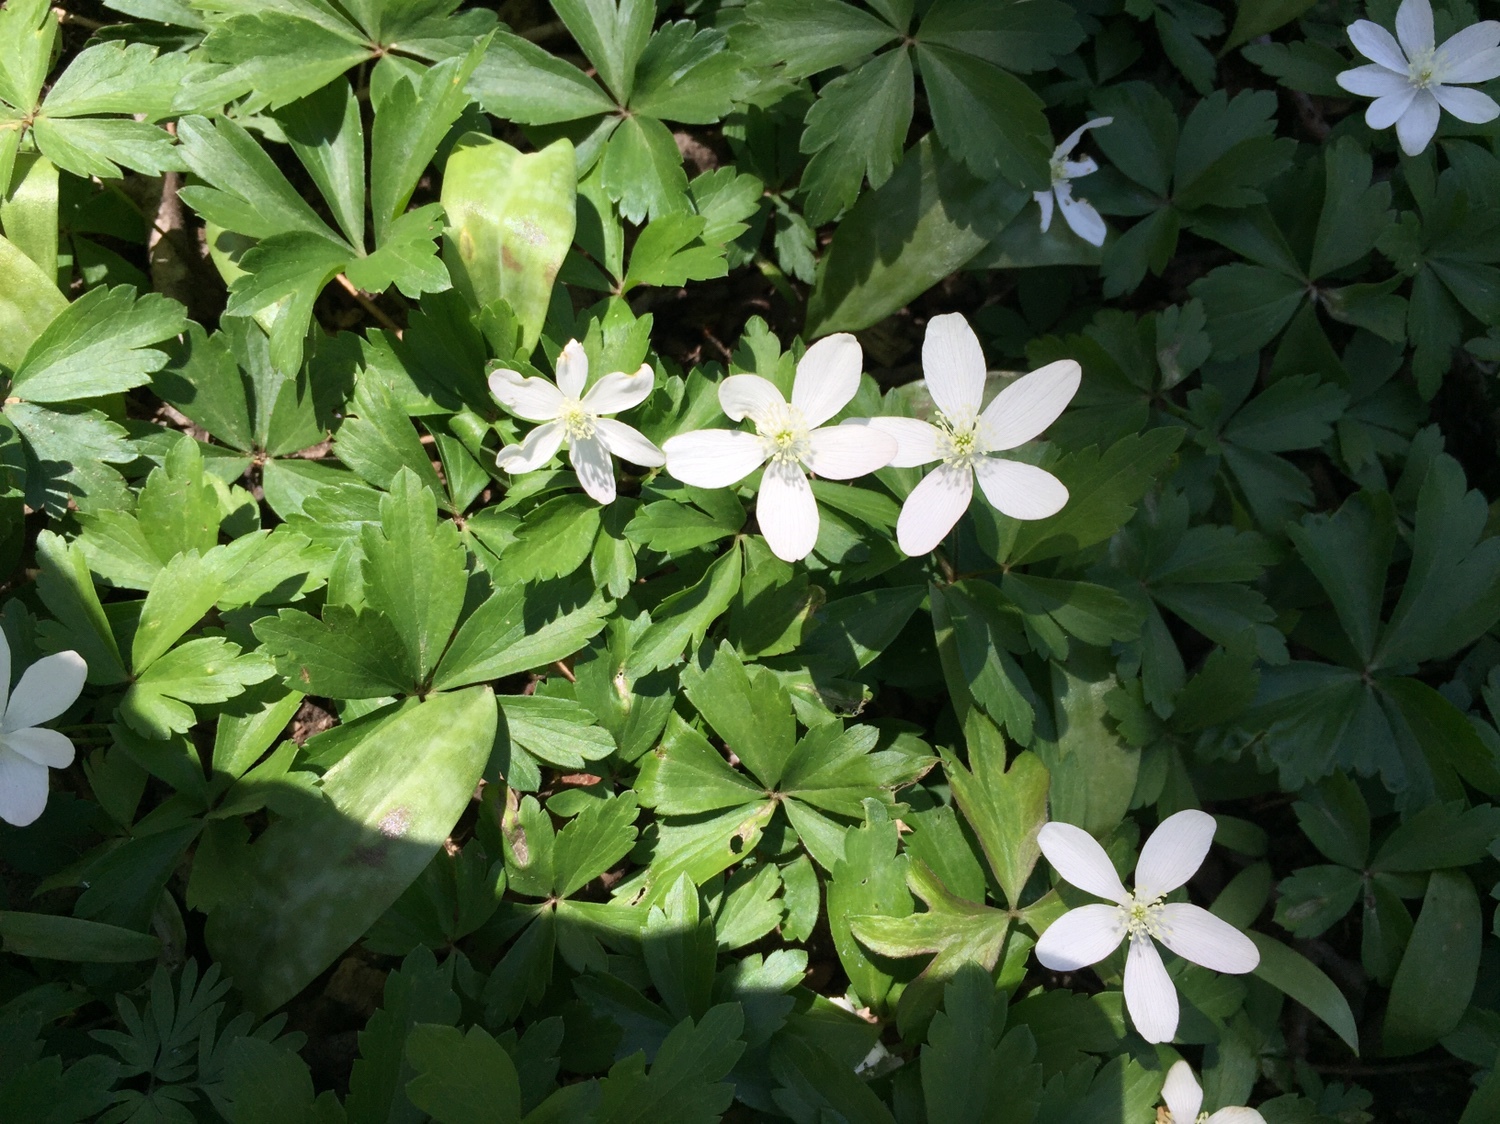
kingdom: Plantae
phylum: Tracheophyta
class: Magnoliopsida
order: Ranunculales
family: Ranunculaceae
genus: Anemone
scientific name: Anemone quinquefolia
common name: Wood anemone
